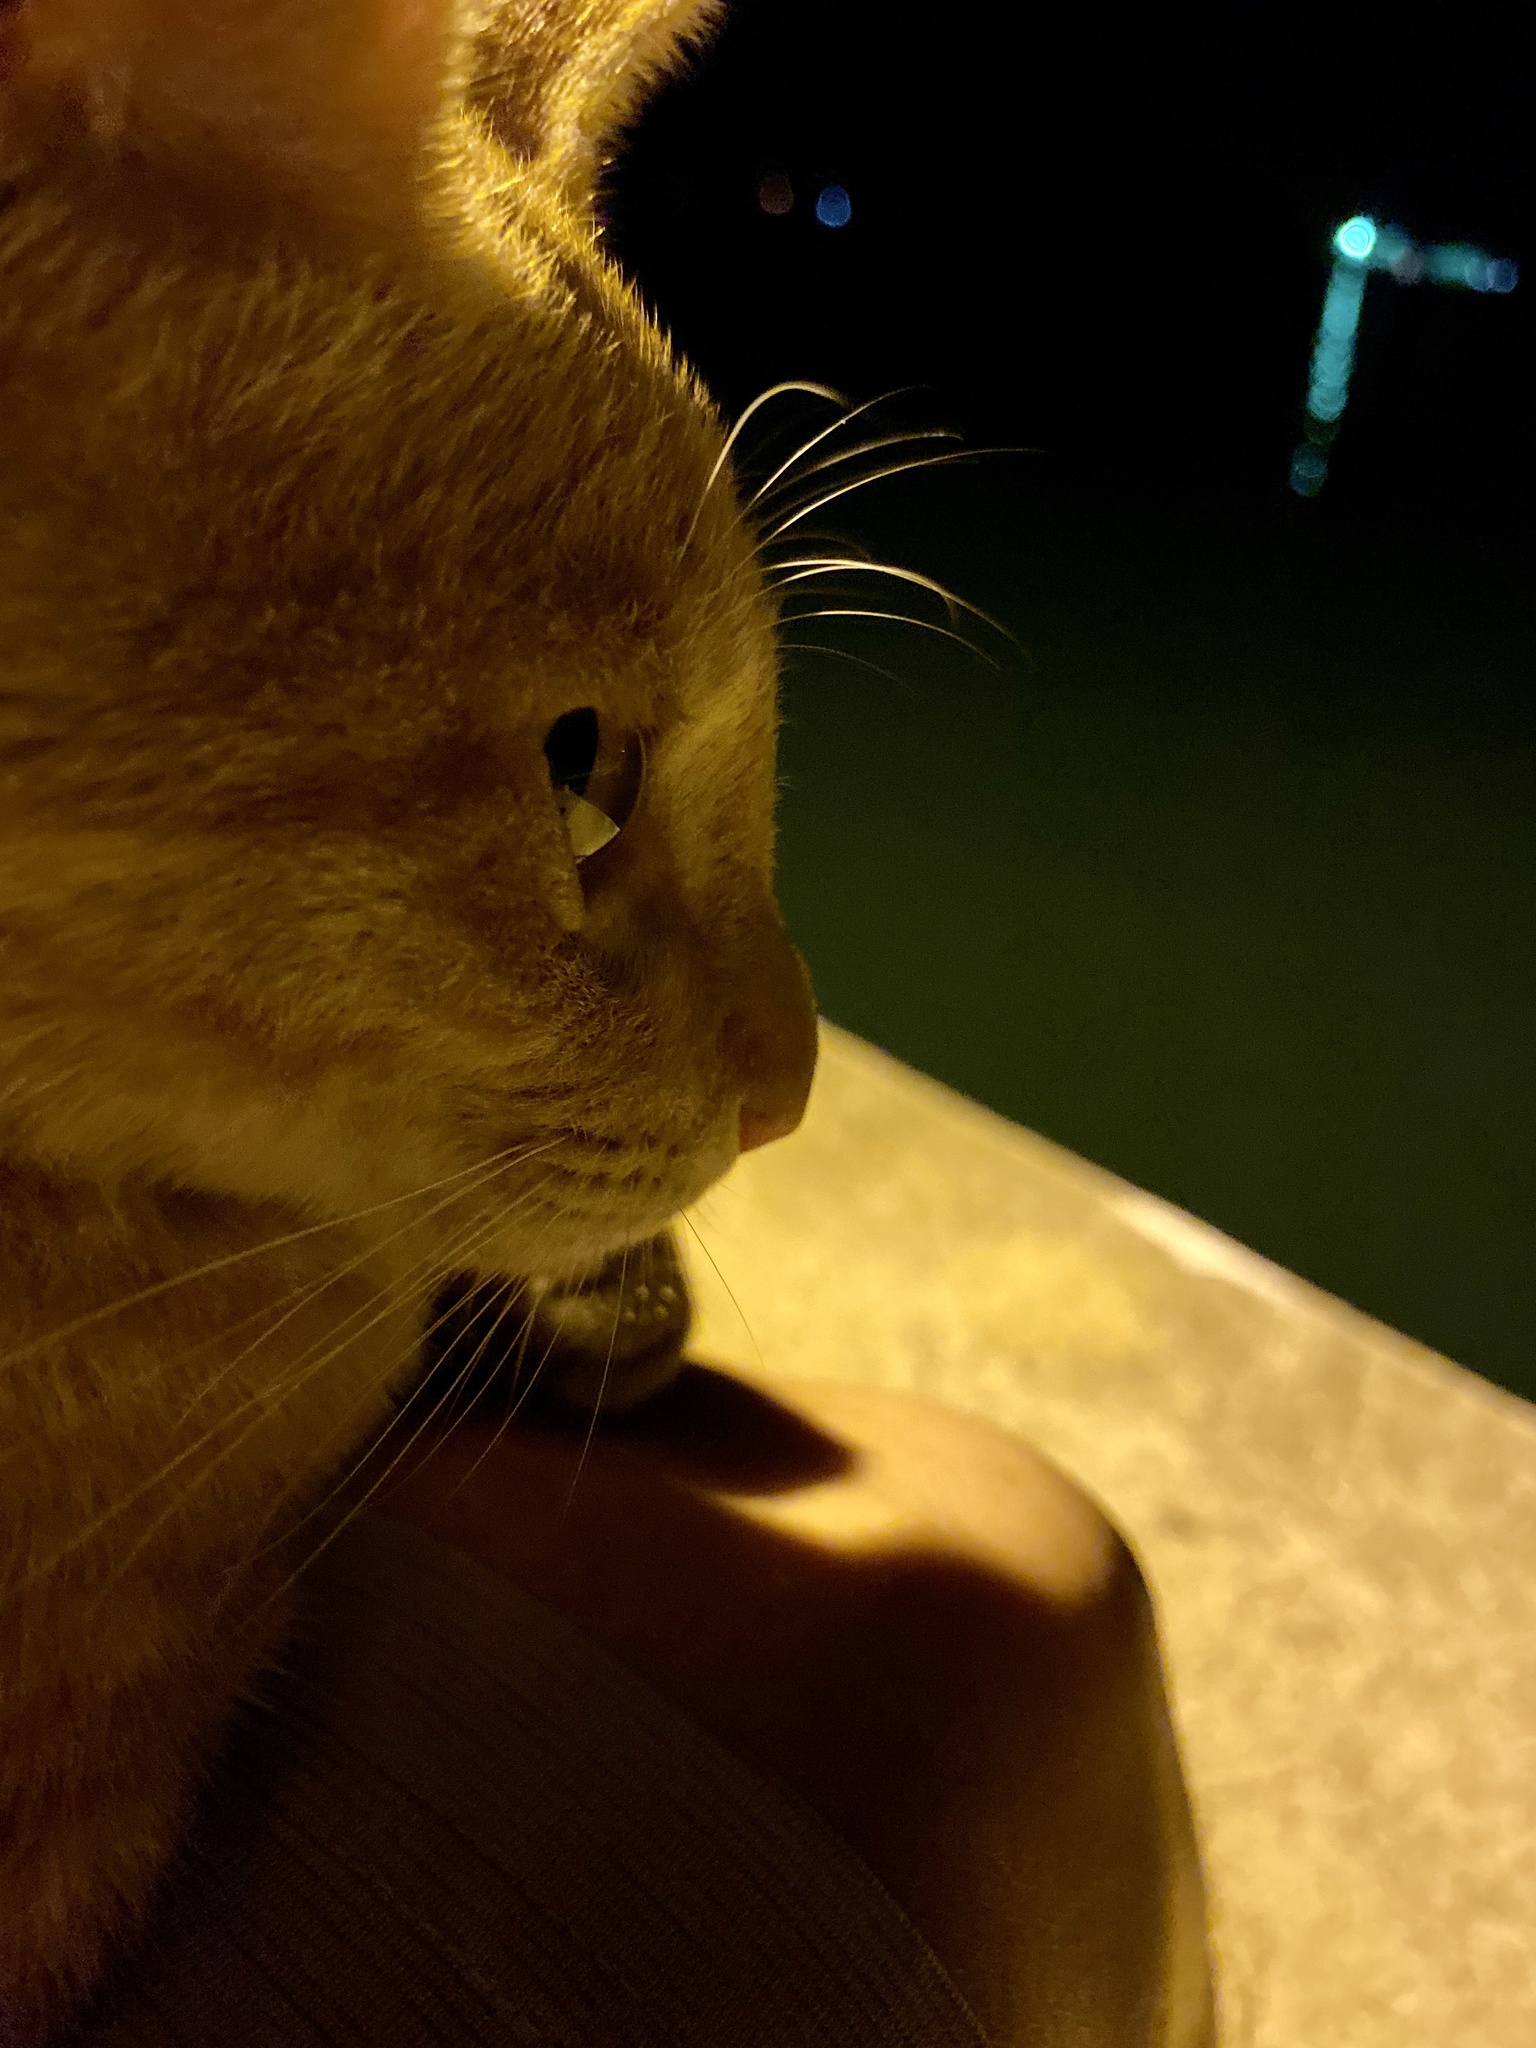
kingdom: Animalia
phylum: Chordata
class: Mammalia
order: Carnivora
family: Felidae
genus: Felis
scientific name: Felis catus
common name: Domestic cat
